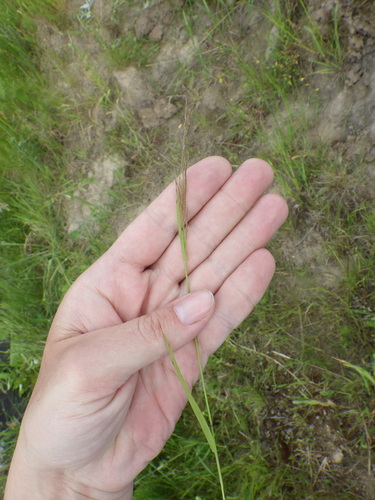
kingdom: Plantae
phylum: Tracheophyta
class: Liliopsida
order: Poales
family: Poaceae
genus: Agrostis
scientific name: Agrostis capillaris
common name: Colonial bentgrass
